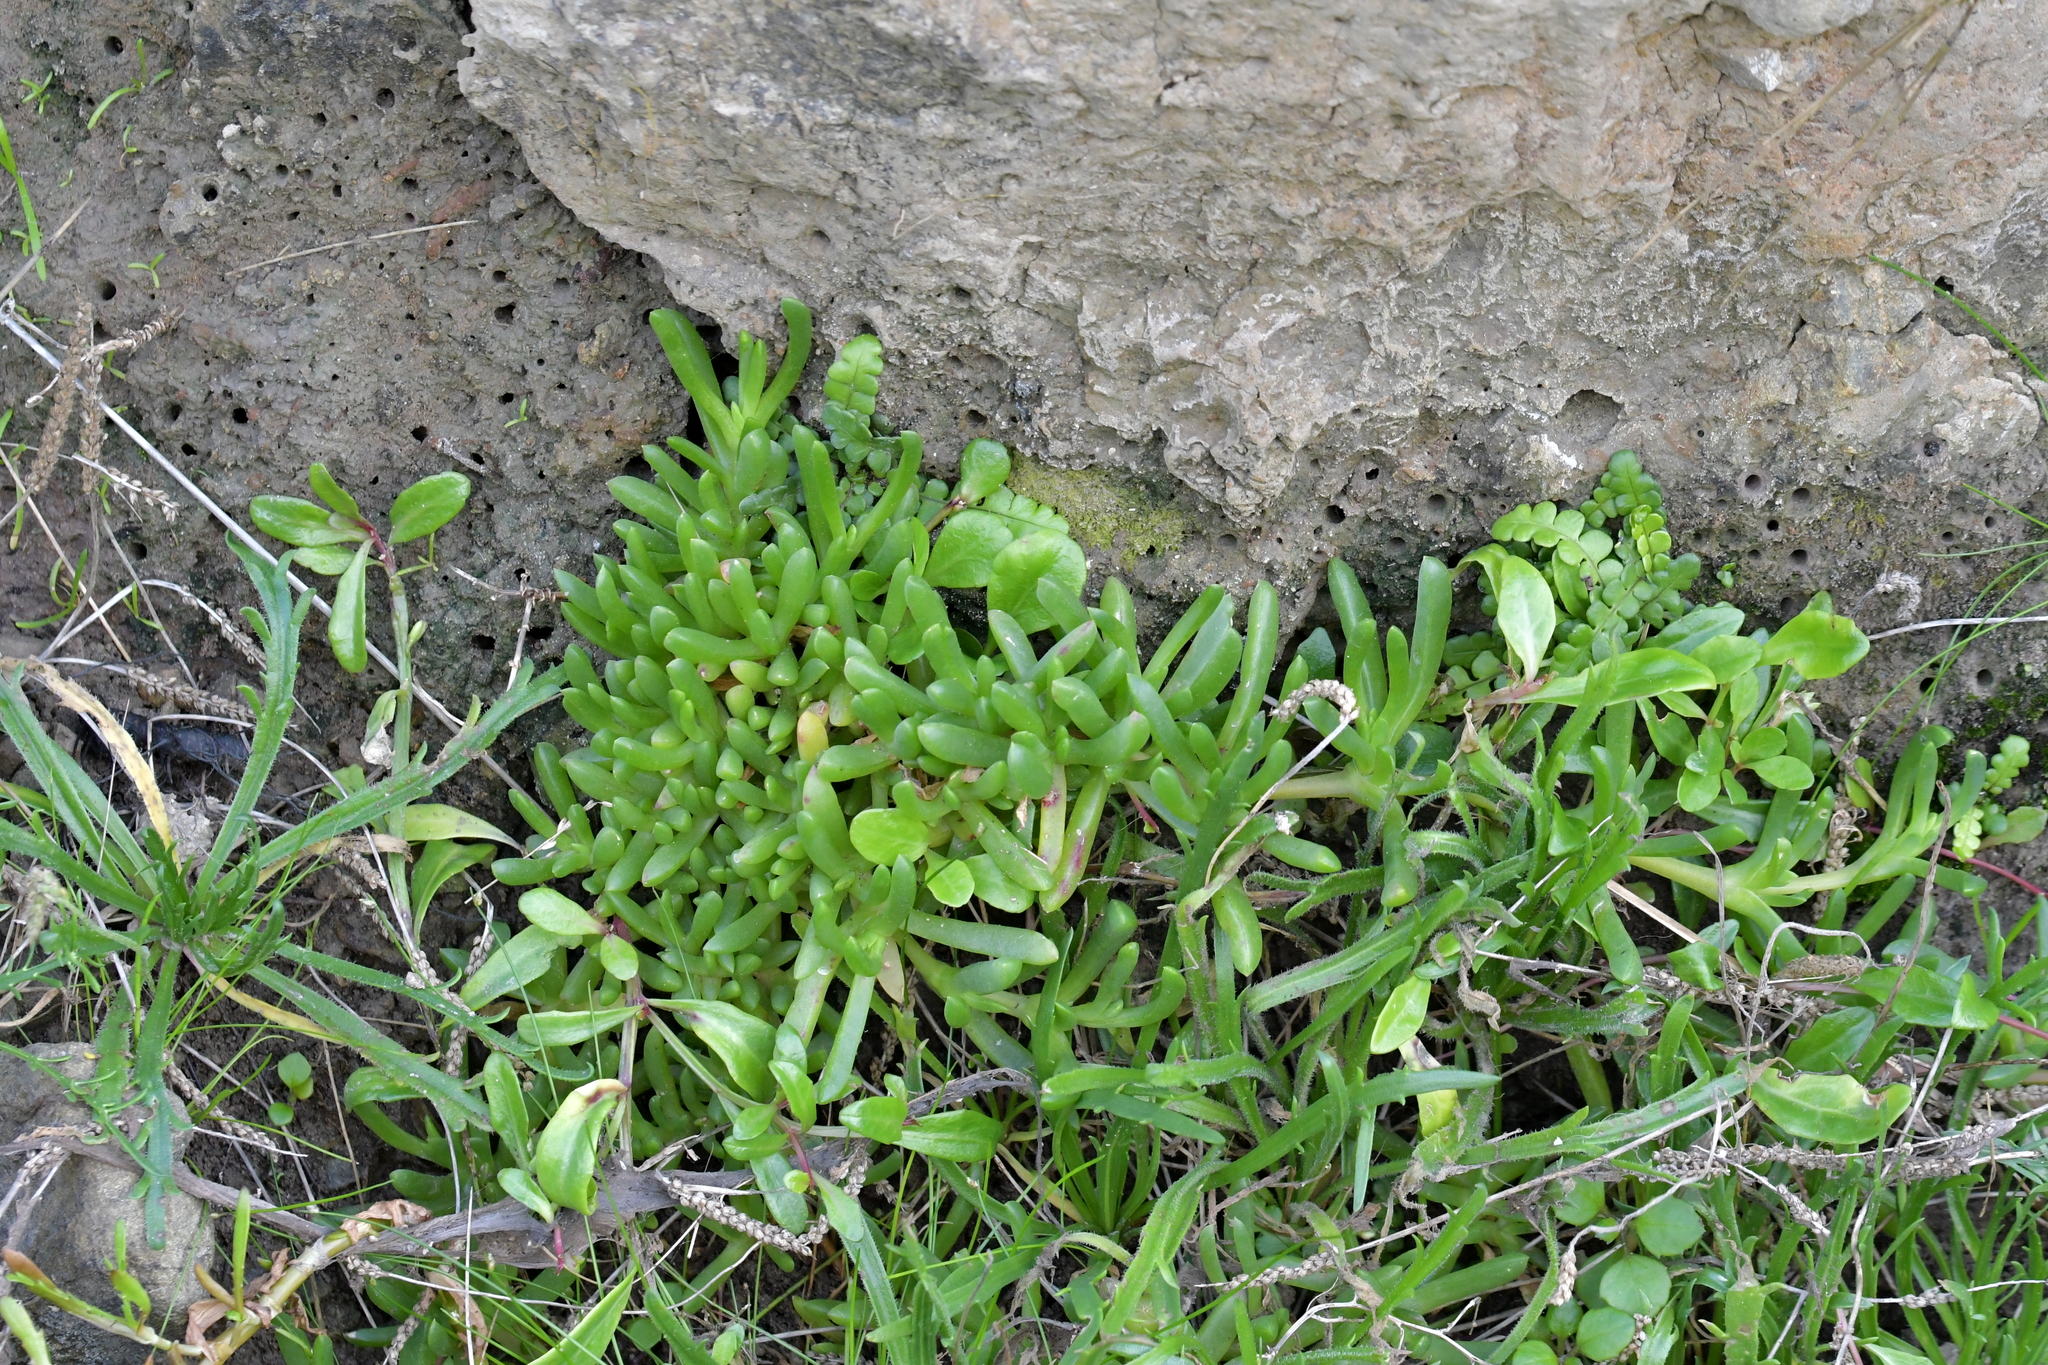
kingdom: Plantae
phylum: Tracheophyta
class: Magnoliopsida
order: Caryophyllales
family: Aizoaceae
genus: Disphyma
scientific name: Disphyma australe
